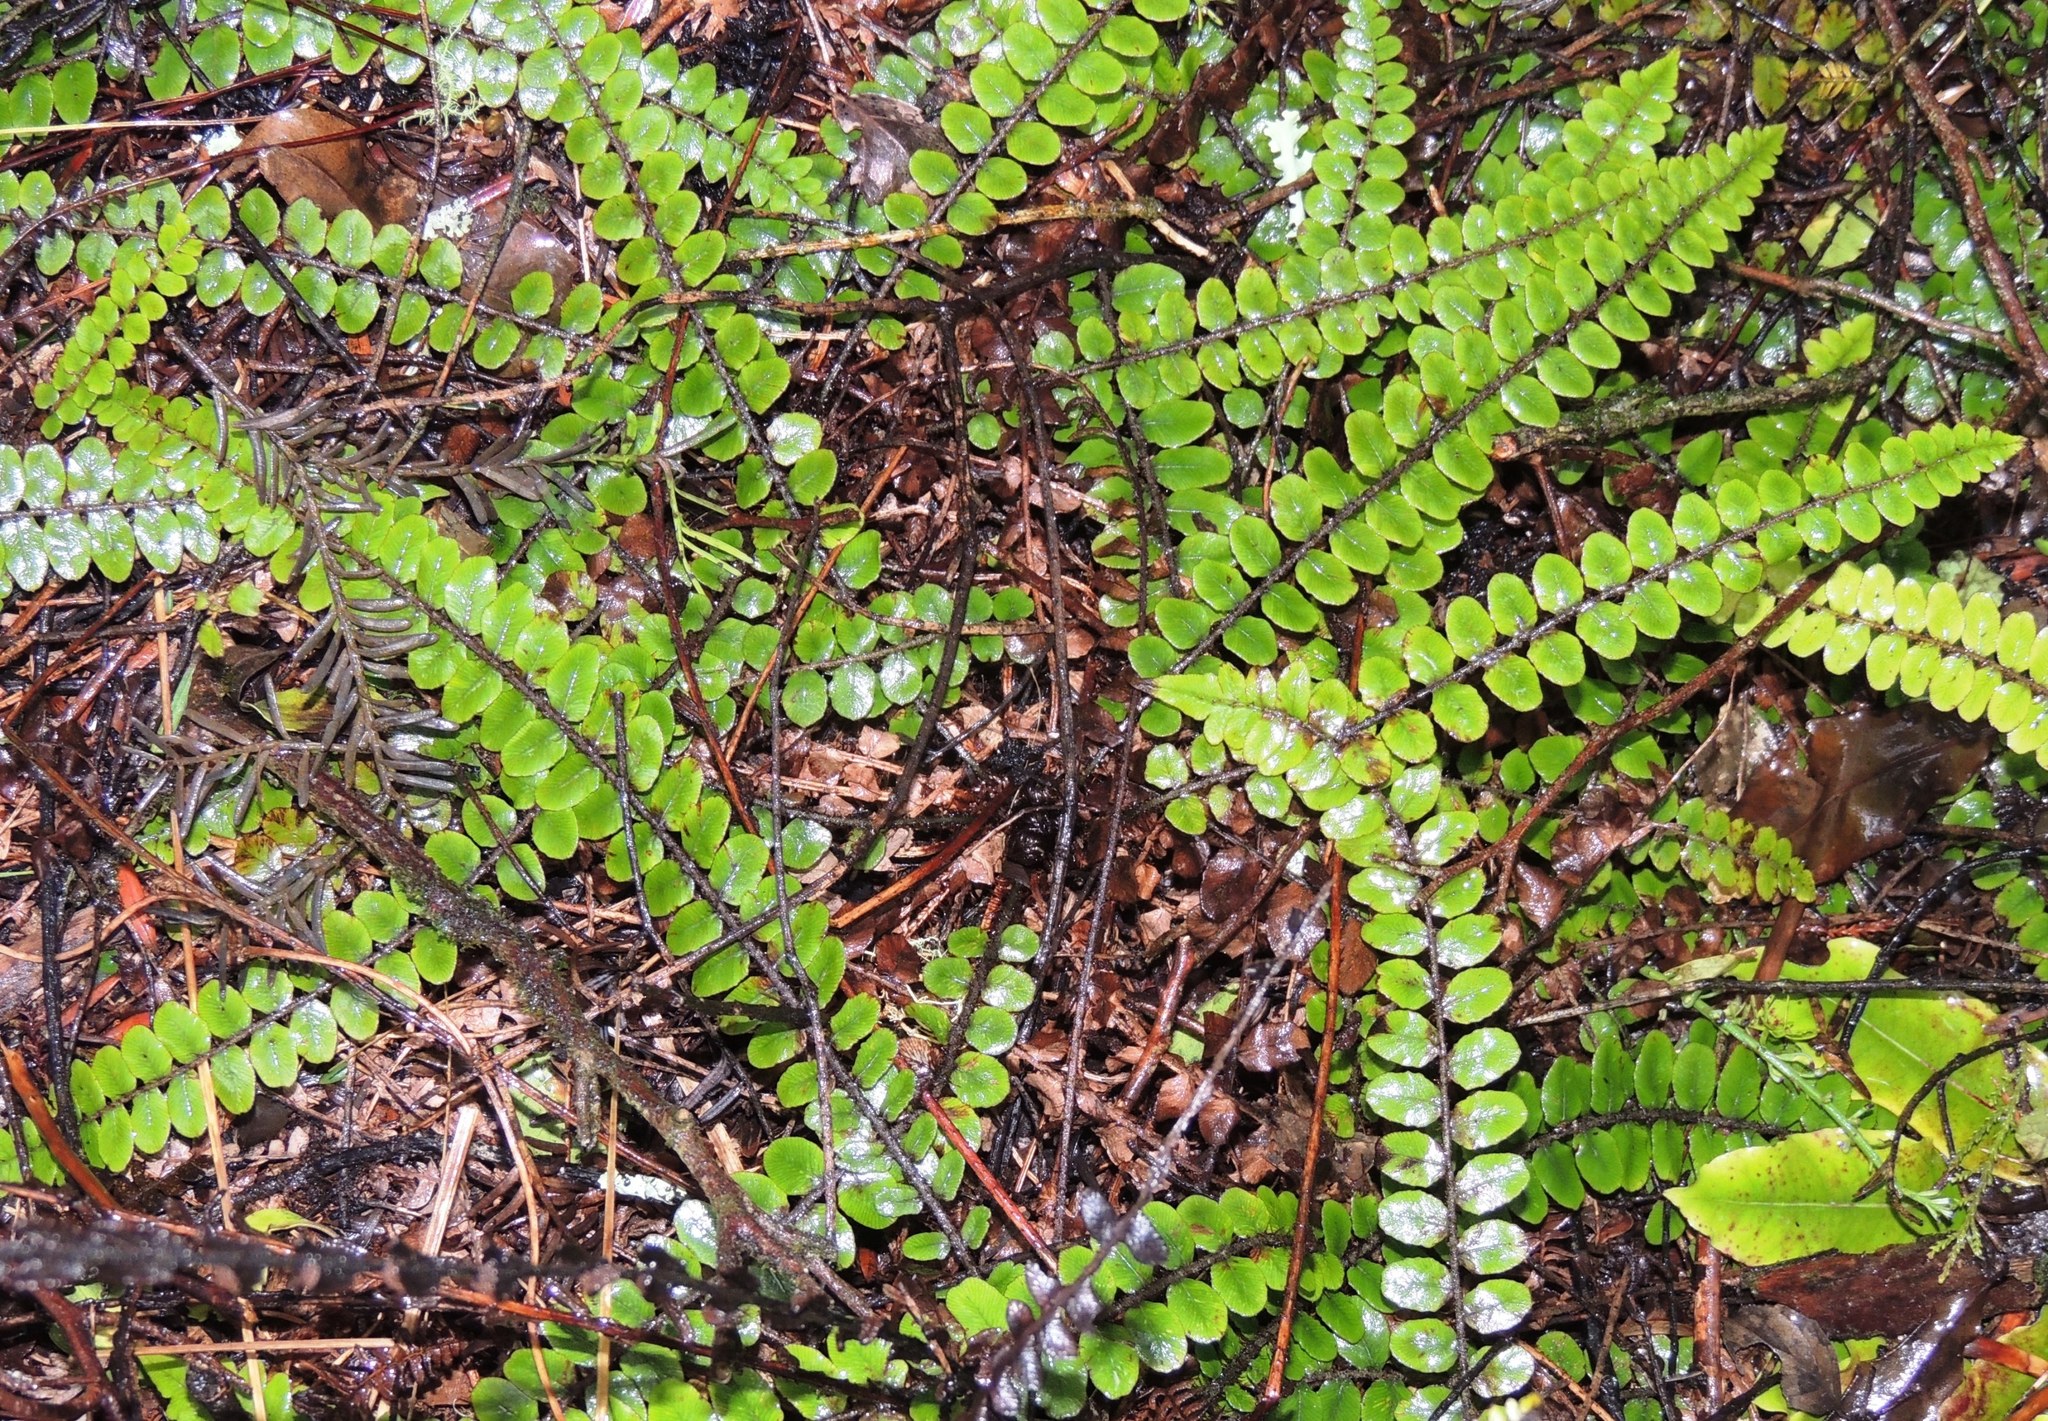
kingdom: Plantae
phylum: Tracheophyta
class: Polypodiopsida
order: Polypodiales
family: Blechnaceae
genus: Cranfillia
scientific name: Cranfillia fluviatilis
